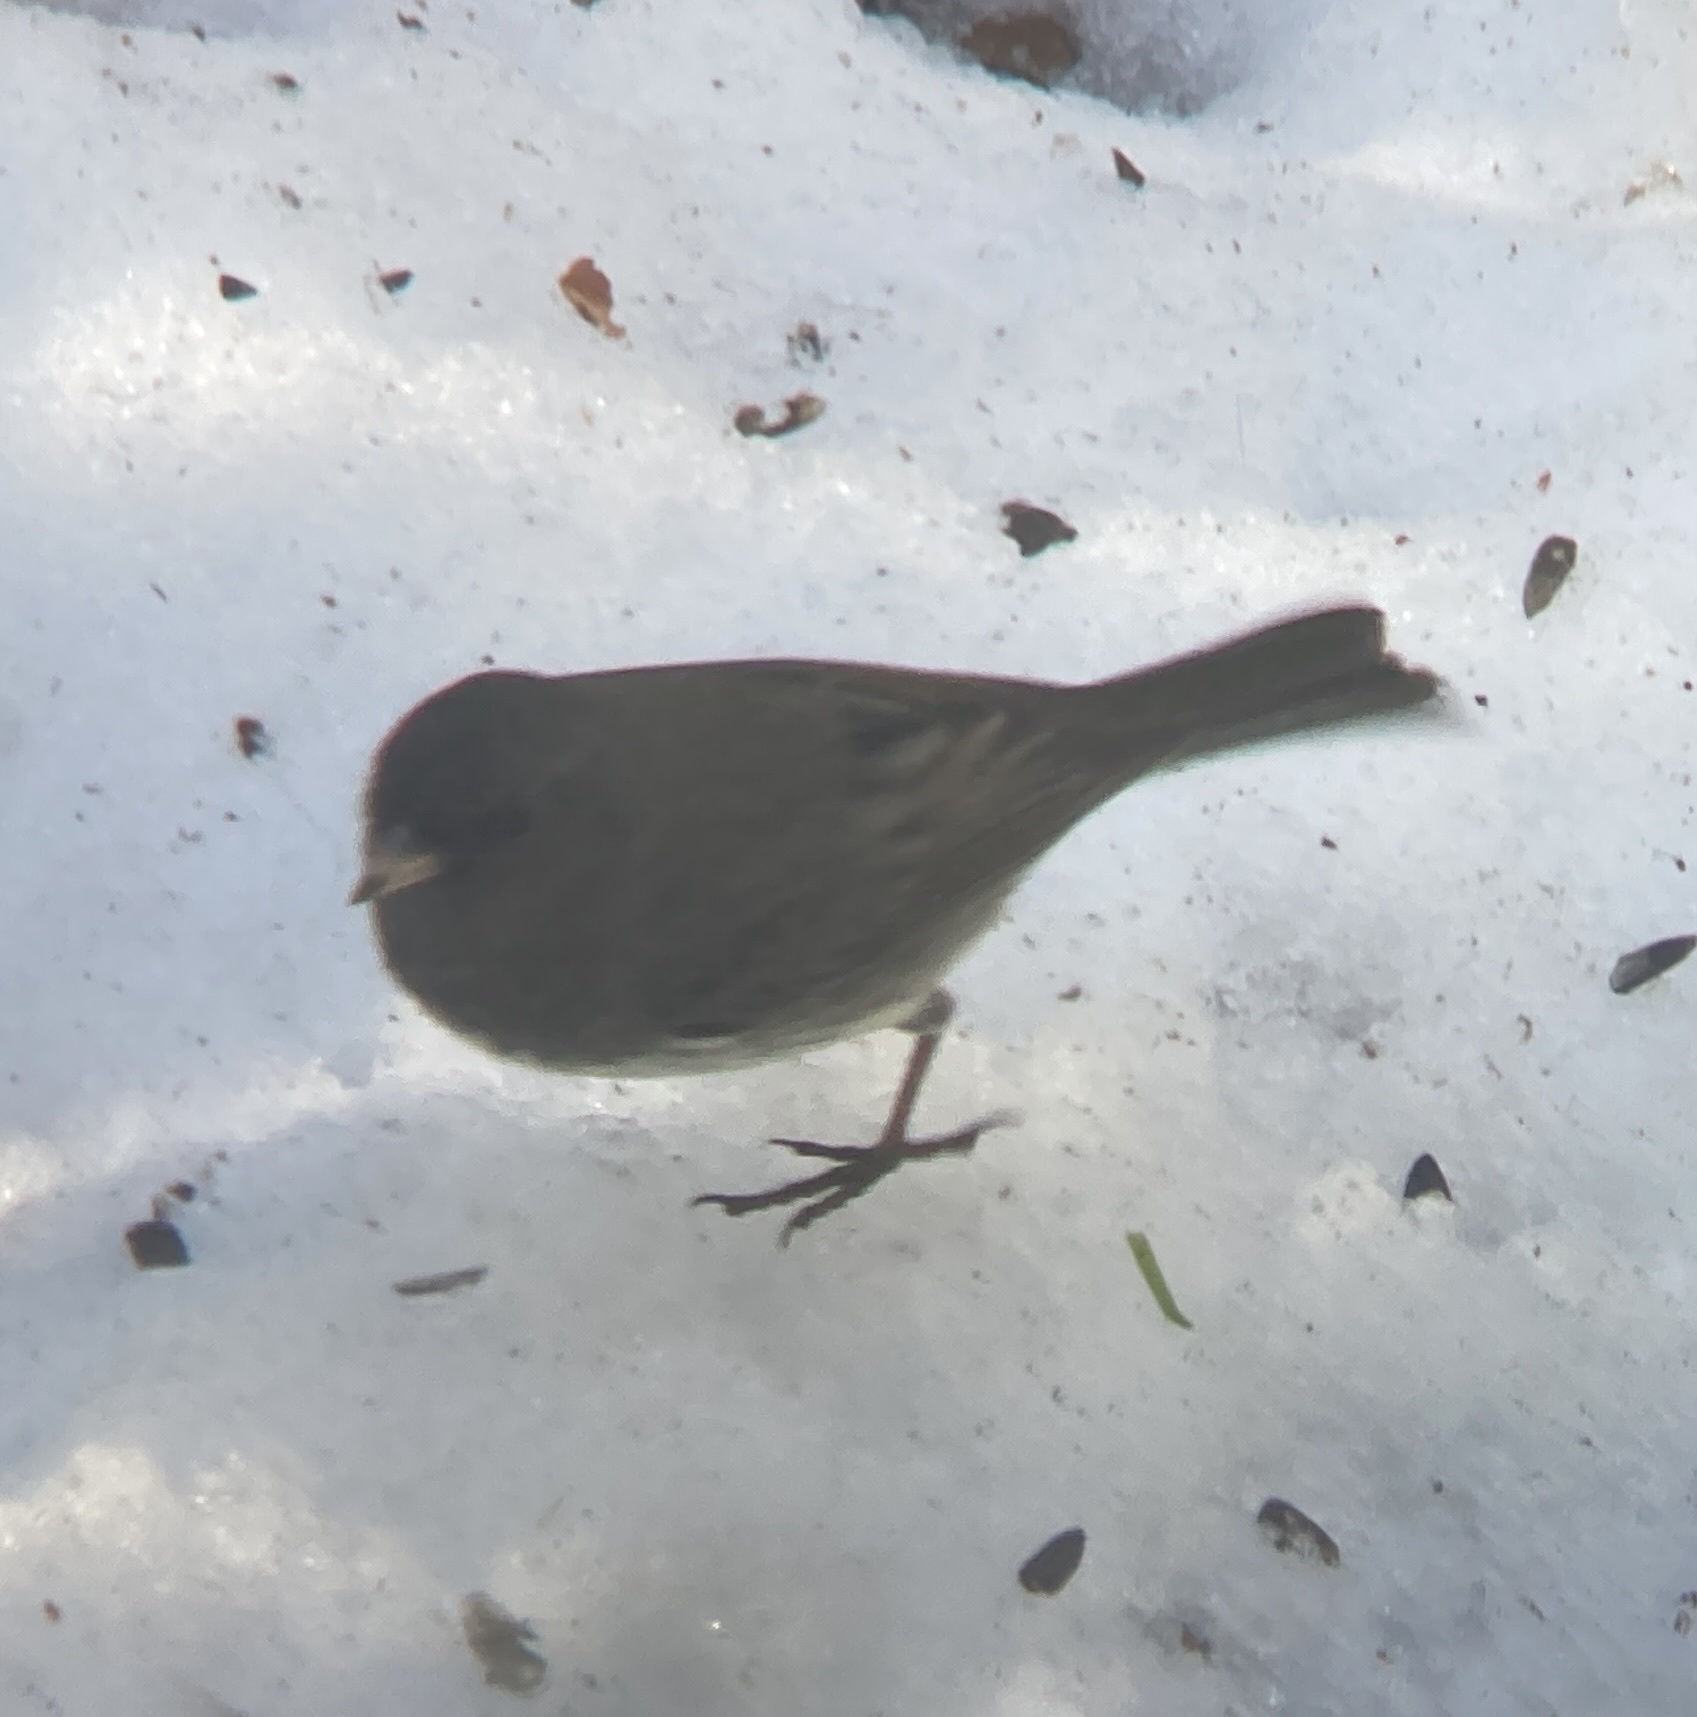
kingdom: Animalia
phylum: Chordata
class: Aves
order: Passeriformes
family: Passerellidae
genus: Junco
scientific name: Junco hyemalis
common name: Dark-eyed junco
